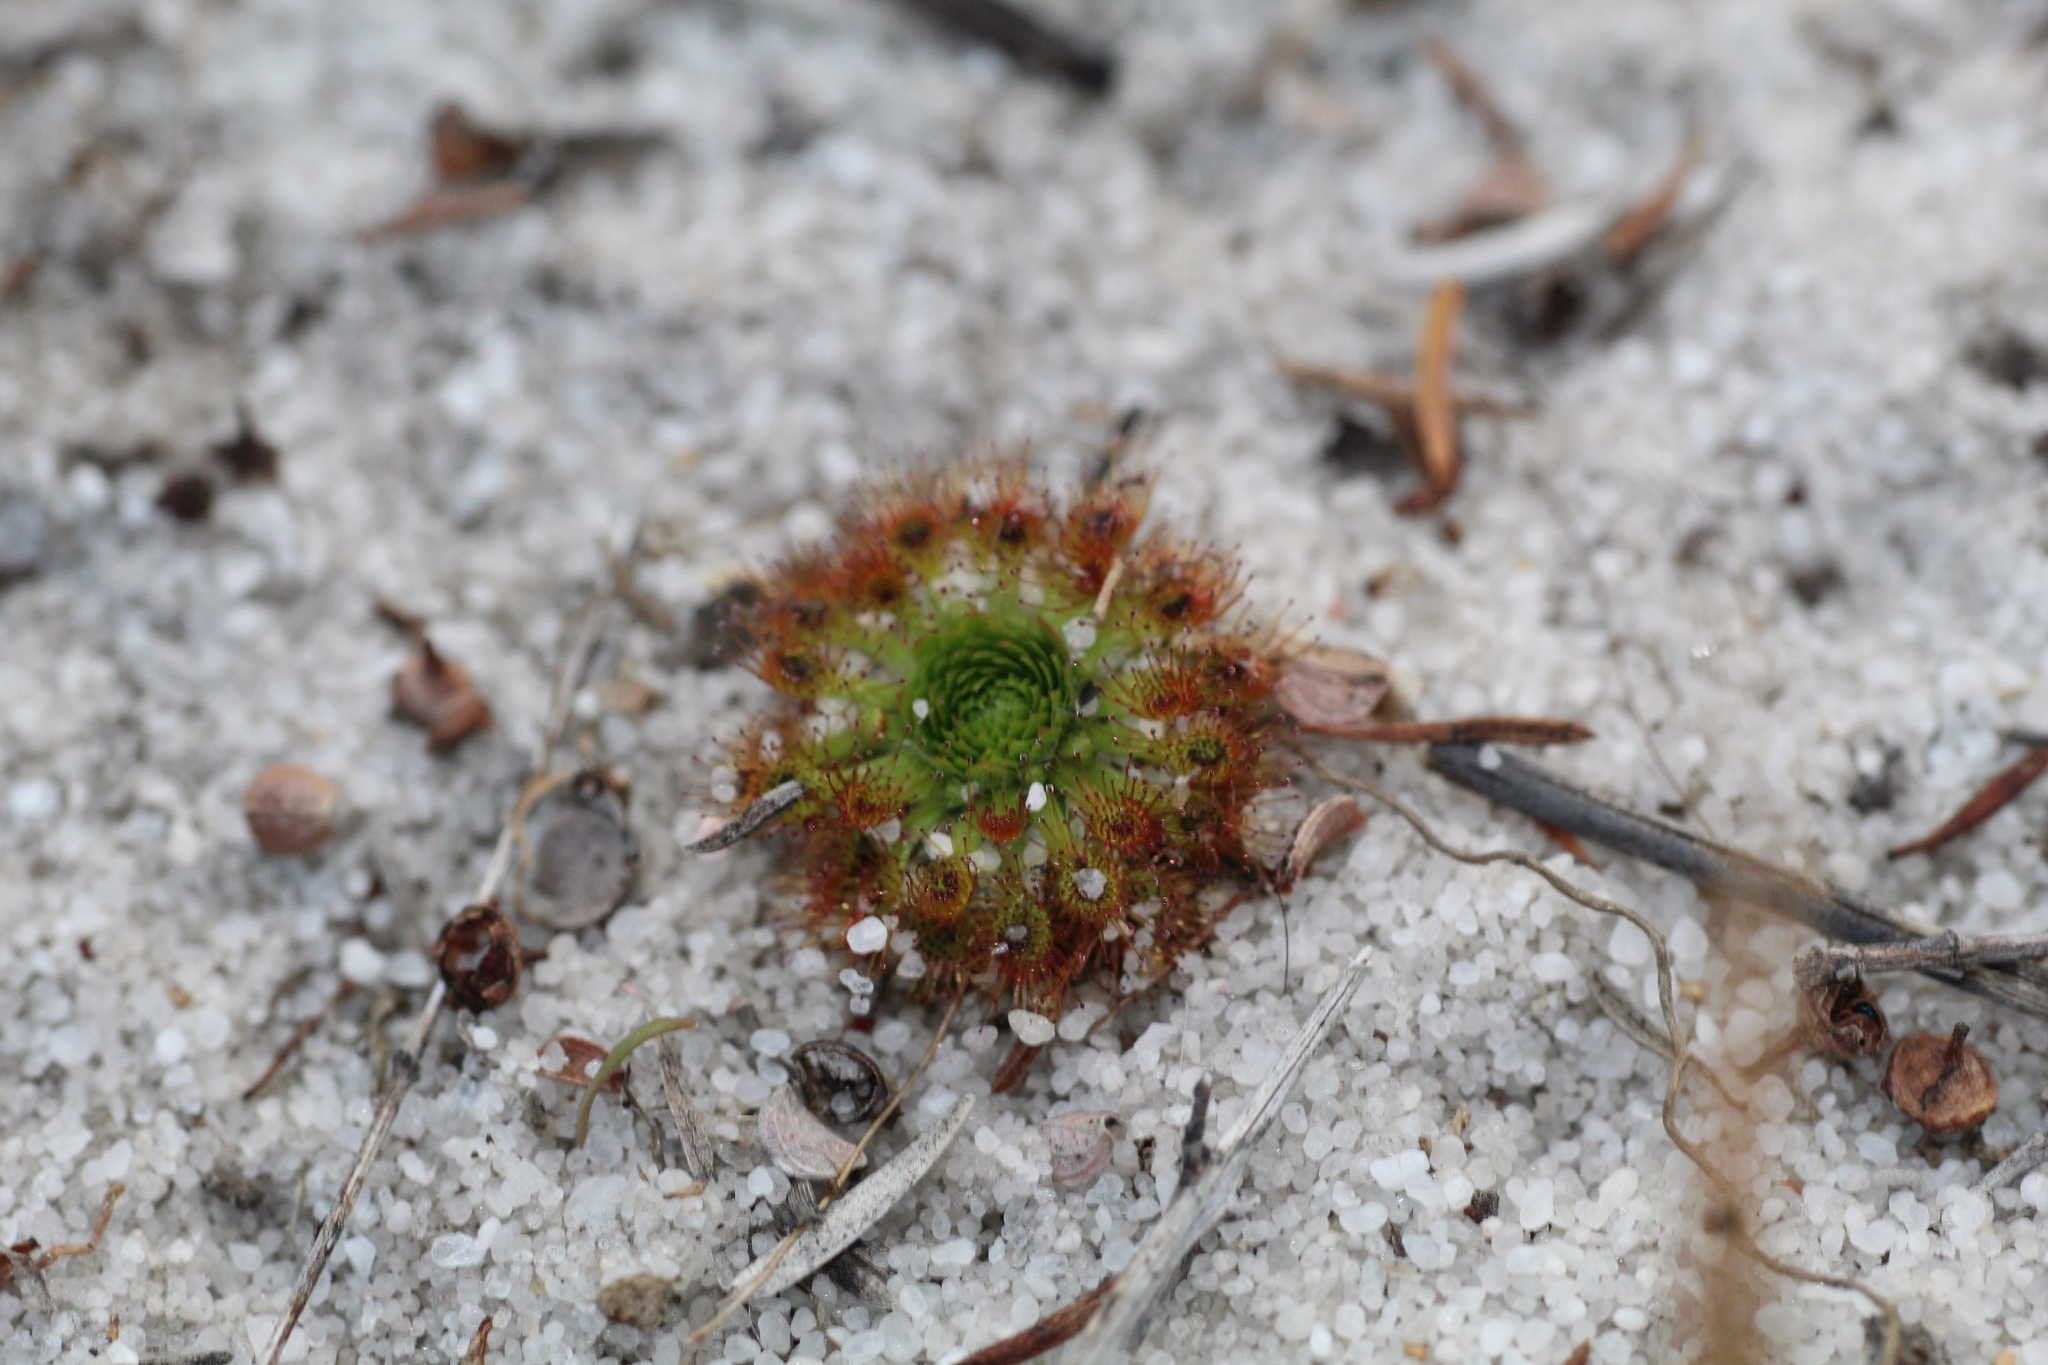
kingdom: Plantae
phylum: Tracheophyta
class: Magnoliopsida
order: Caryophyllales
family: Droseraceae
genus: Drosera
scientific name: Drosera patens
